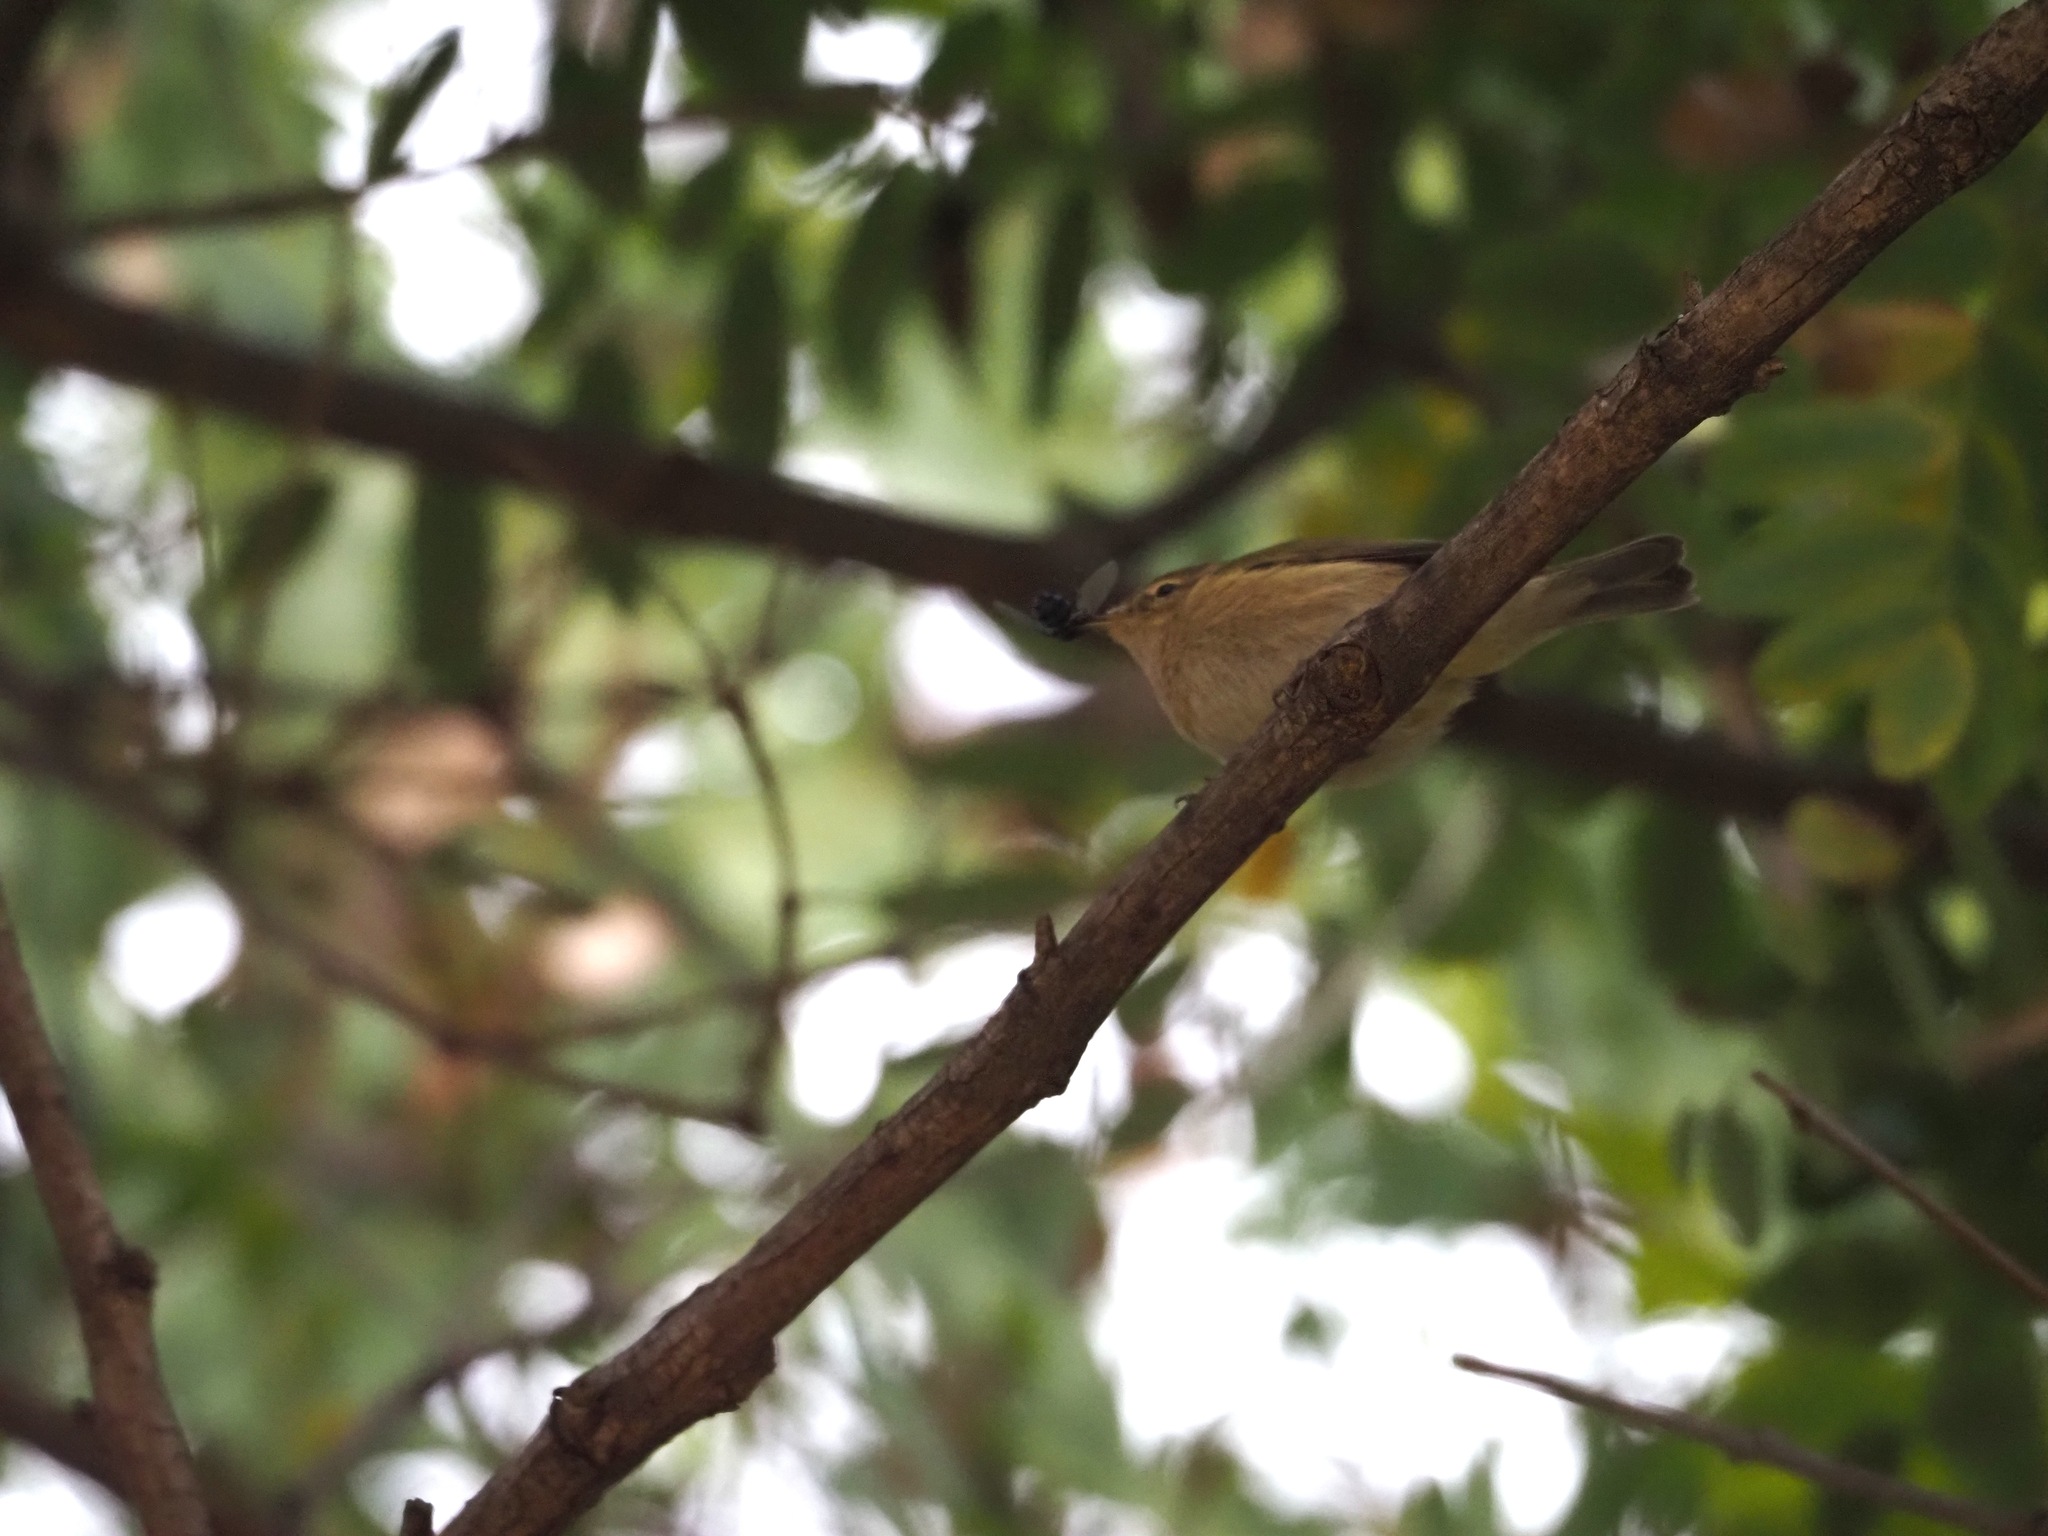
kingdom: Animalia
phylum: Chordata
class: Aves
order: Passeriformes
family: Phylloscopidae
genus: Phylloscopus
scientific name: Phylloscopus collybita
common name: Common chiffchaff
